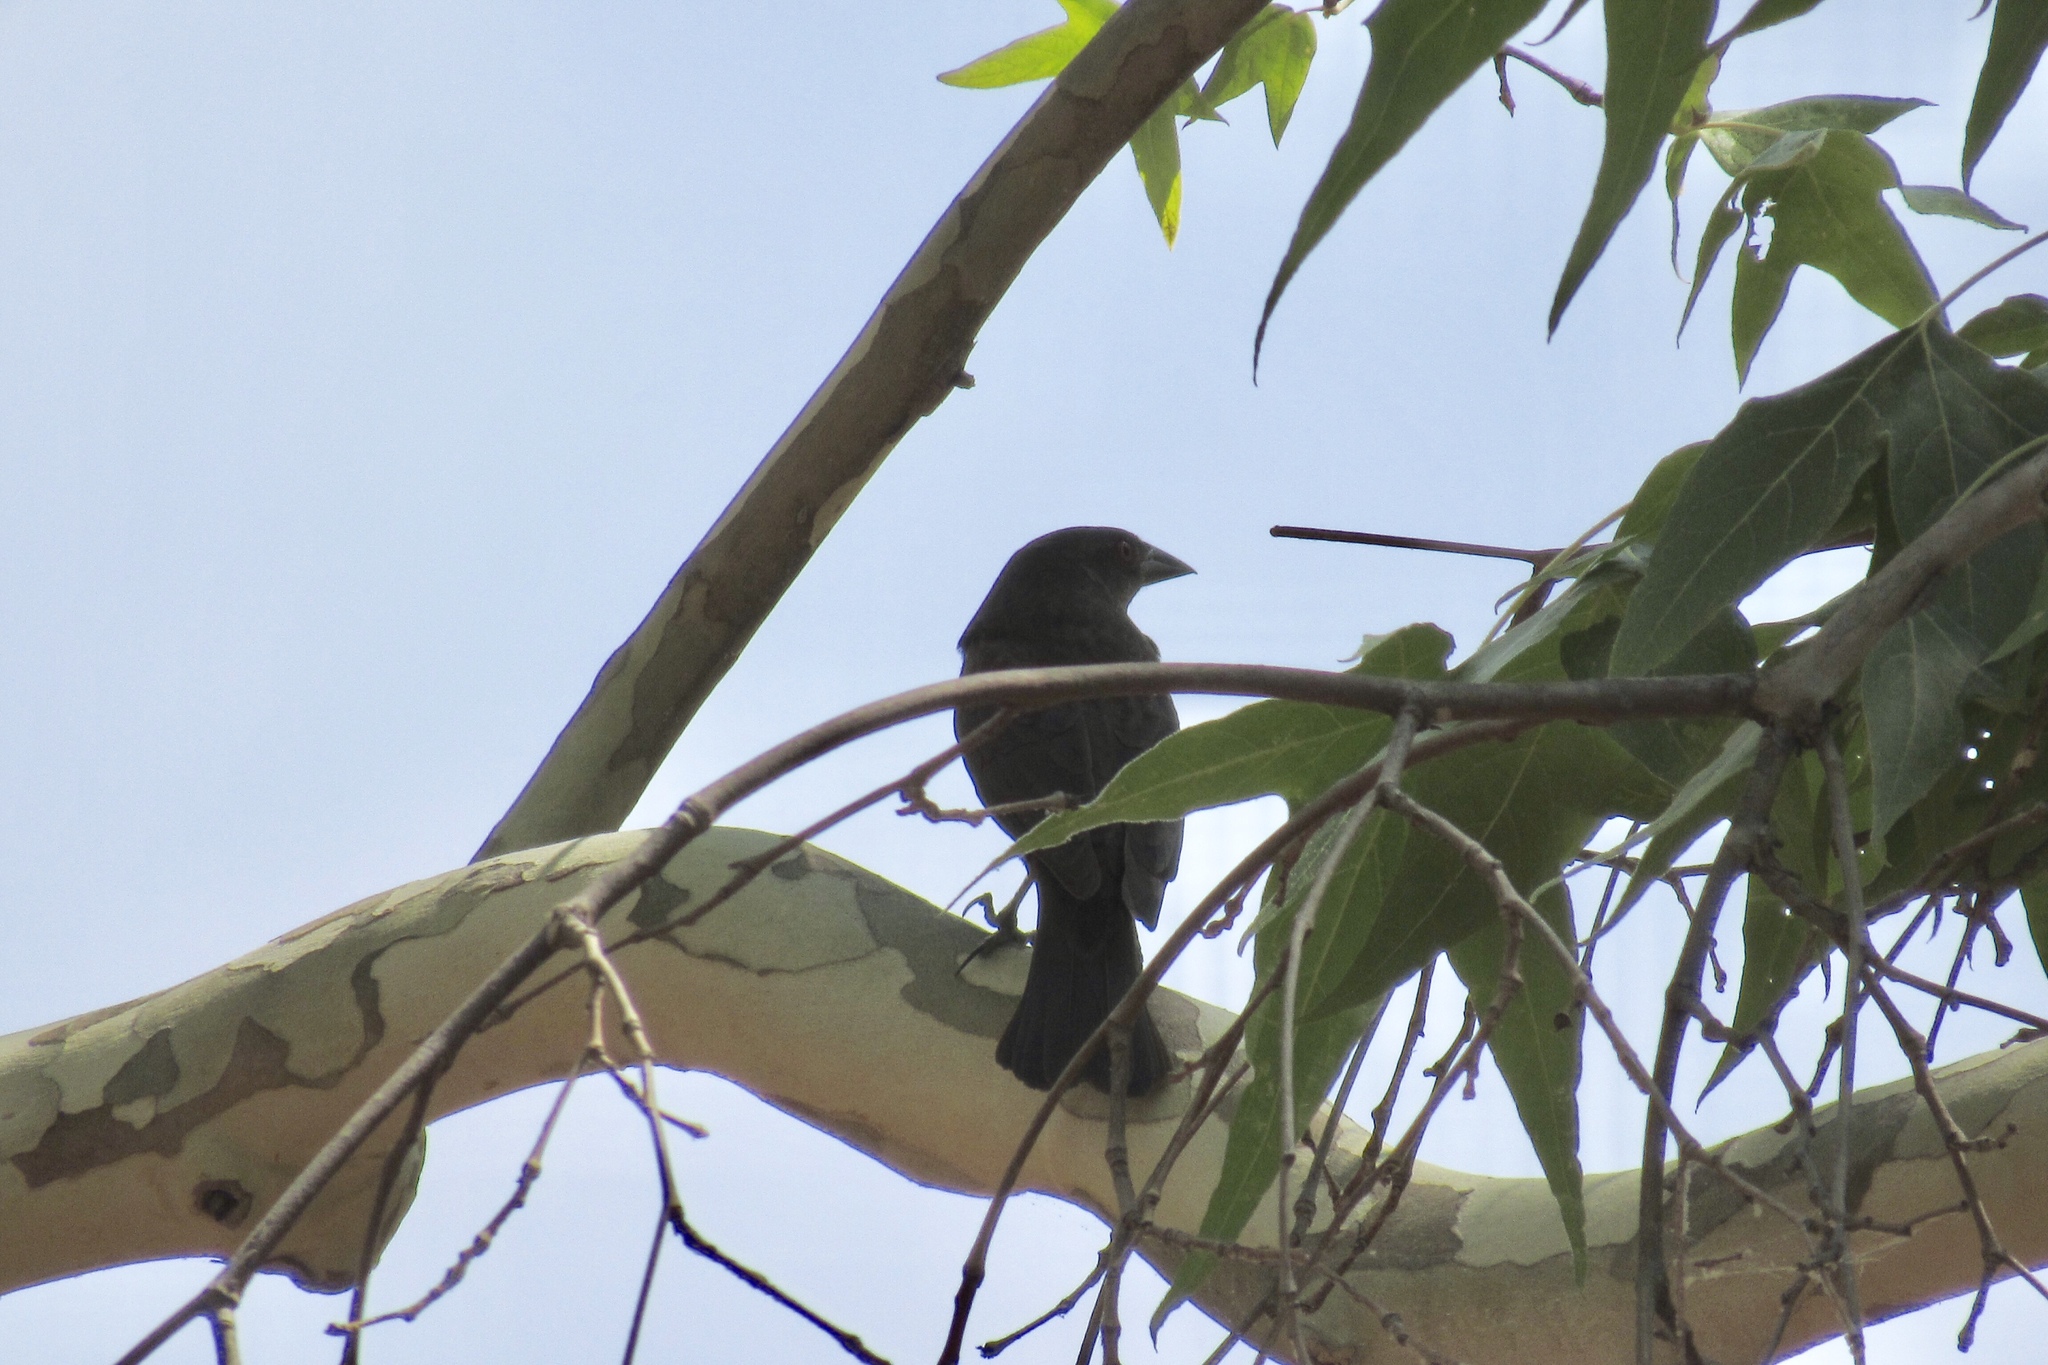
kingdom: Animalia
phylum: Chordata
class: Aves
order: Passeriformes
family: Icteridae
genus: Molothrus
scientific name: Molothrus aeneus
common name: Bronzed cowbird
